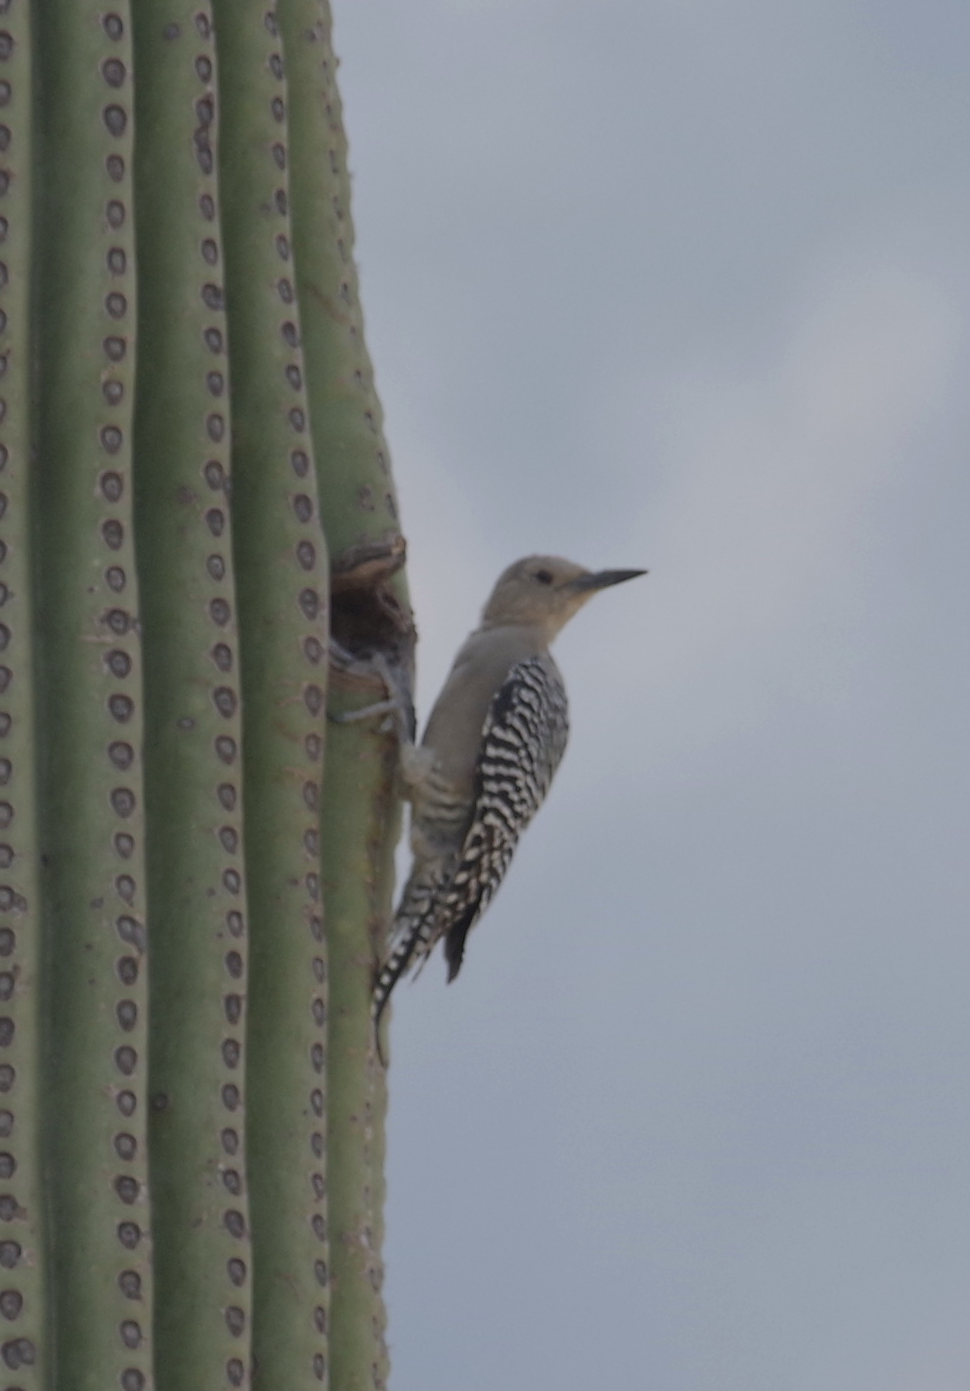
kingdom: Animalia
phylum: Chordata
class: Aves
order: Piciformes
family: Picidae
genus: Melanerpes
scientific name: Melanerpes uropygialis
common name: Gila woodpecker
